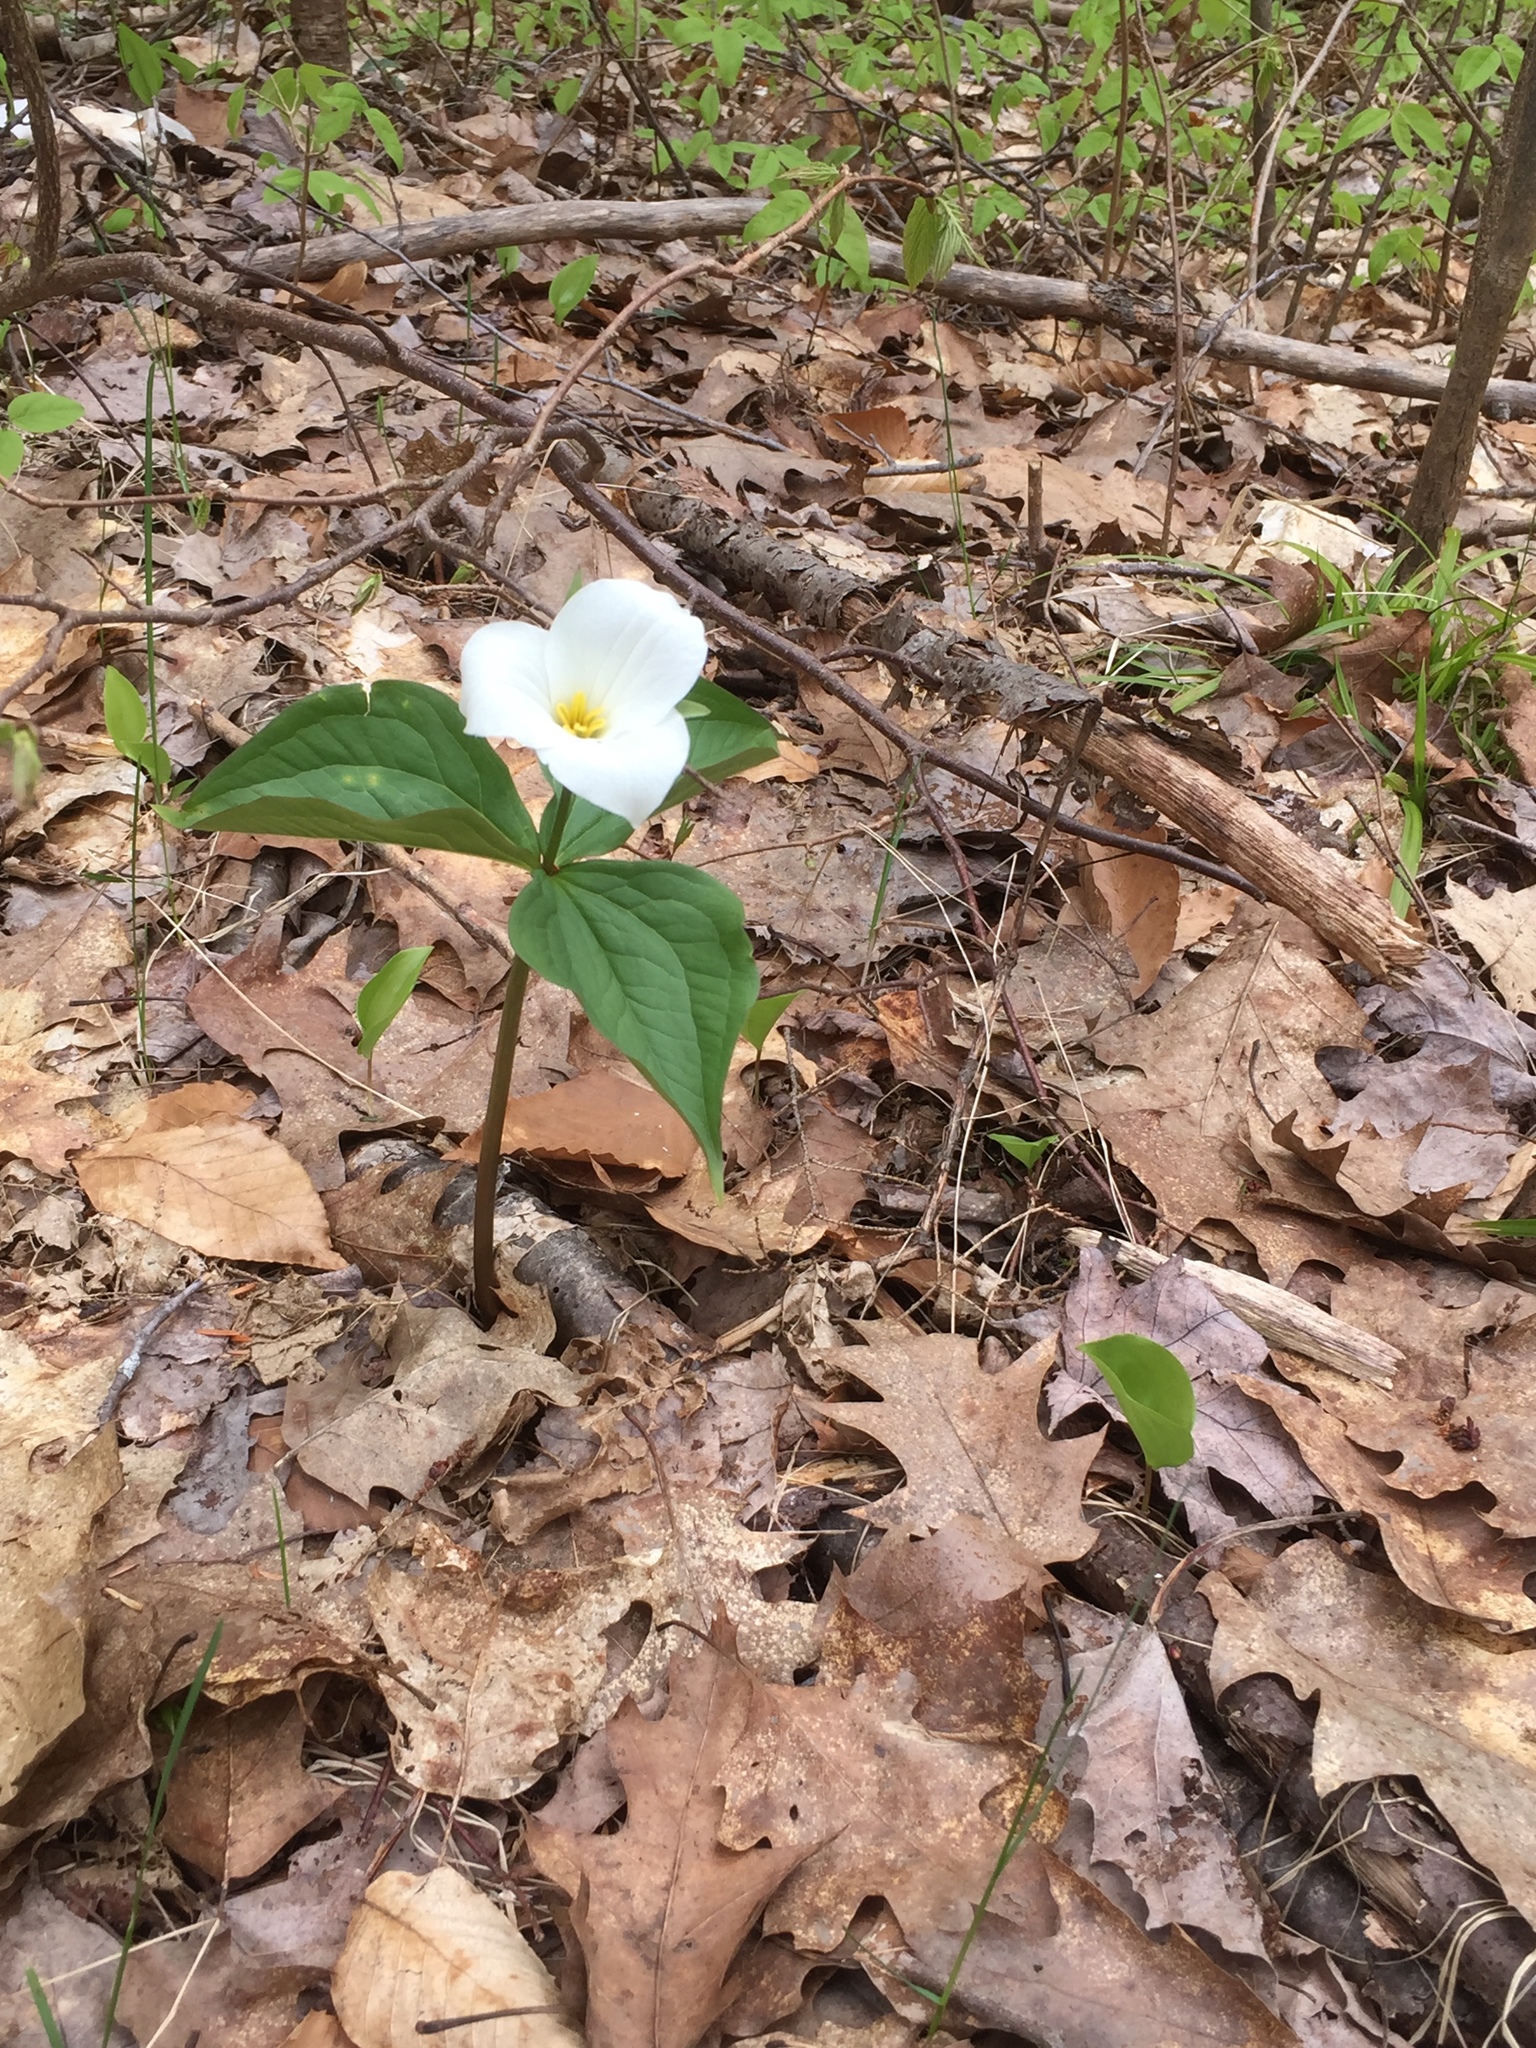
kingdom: Plantae
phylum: Tracheophyta
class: Liliopsida
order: Liliales
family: Melanthiaceae
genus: Trillium
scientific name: Trillium grandiflorum
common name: Great white trillium
